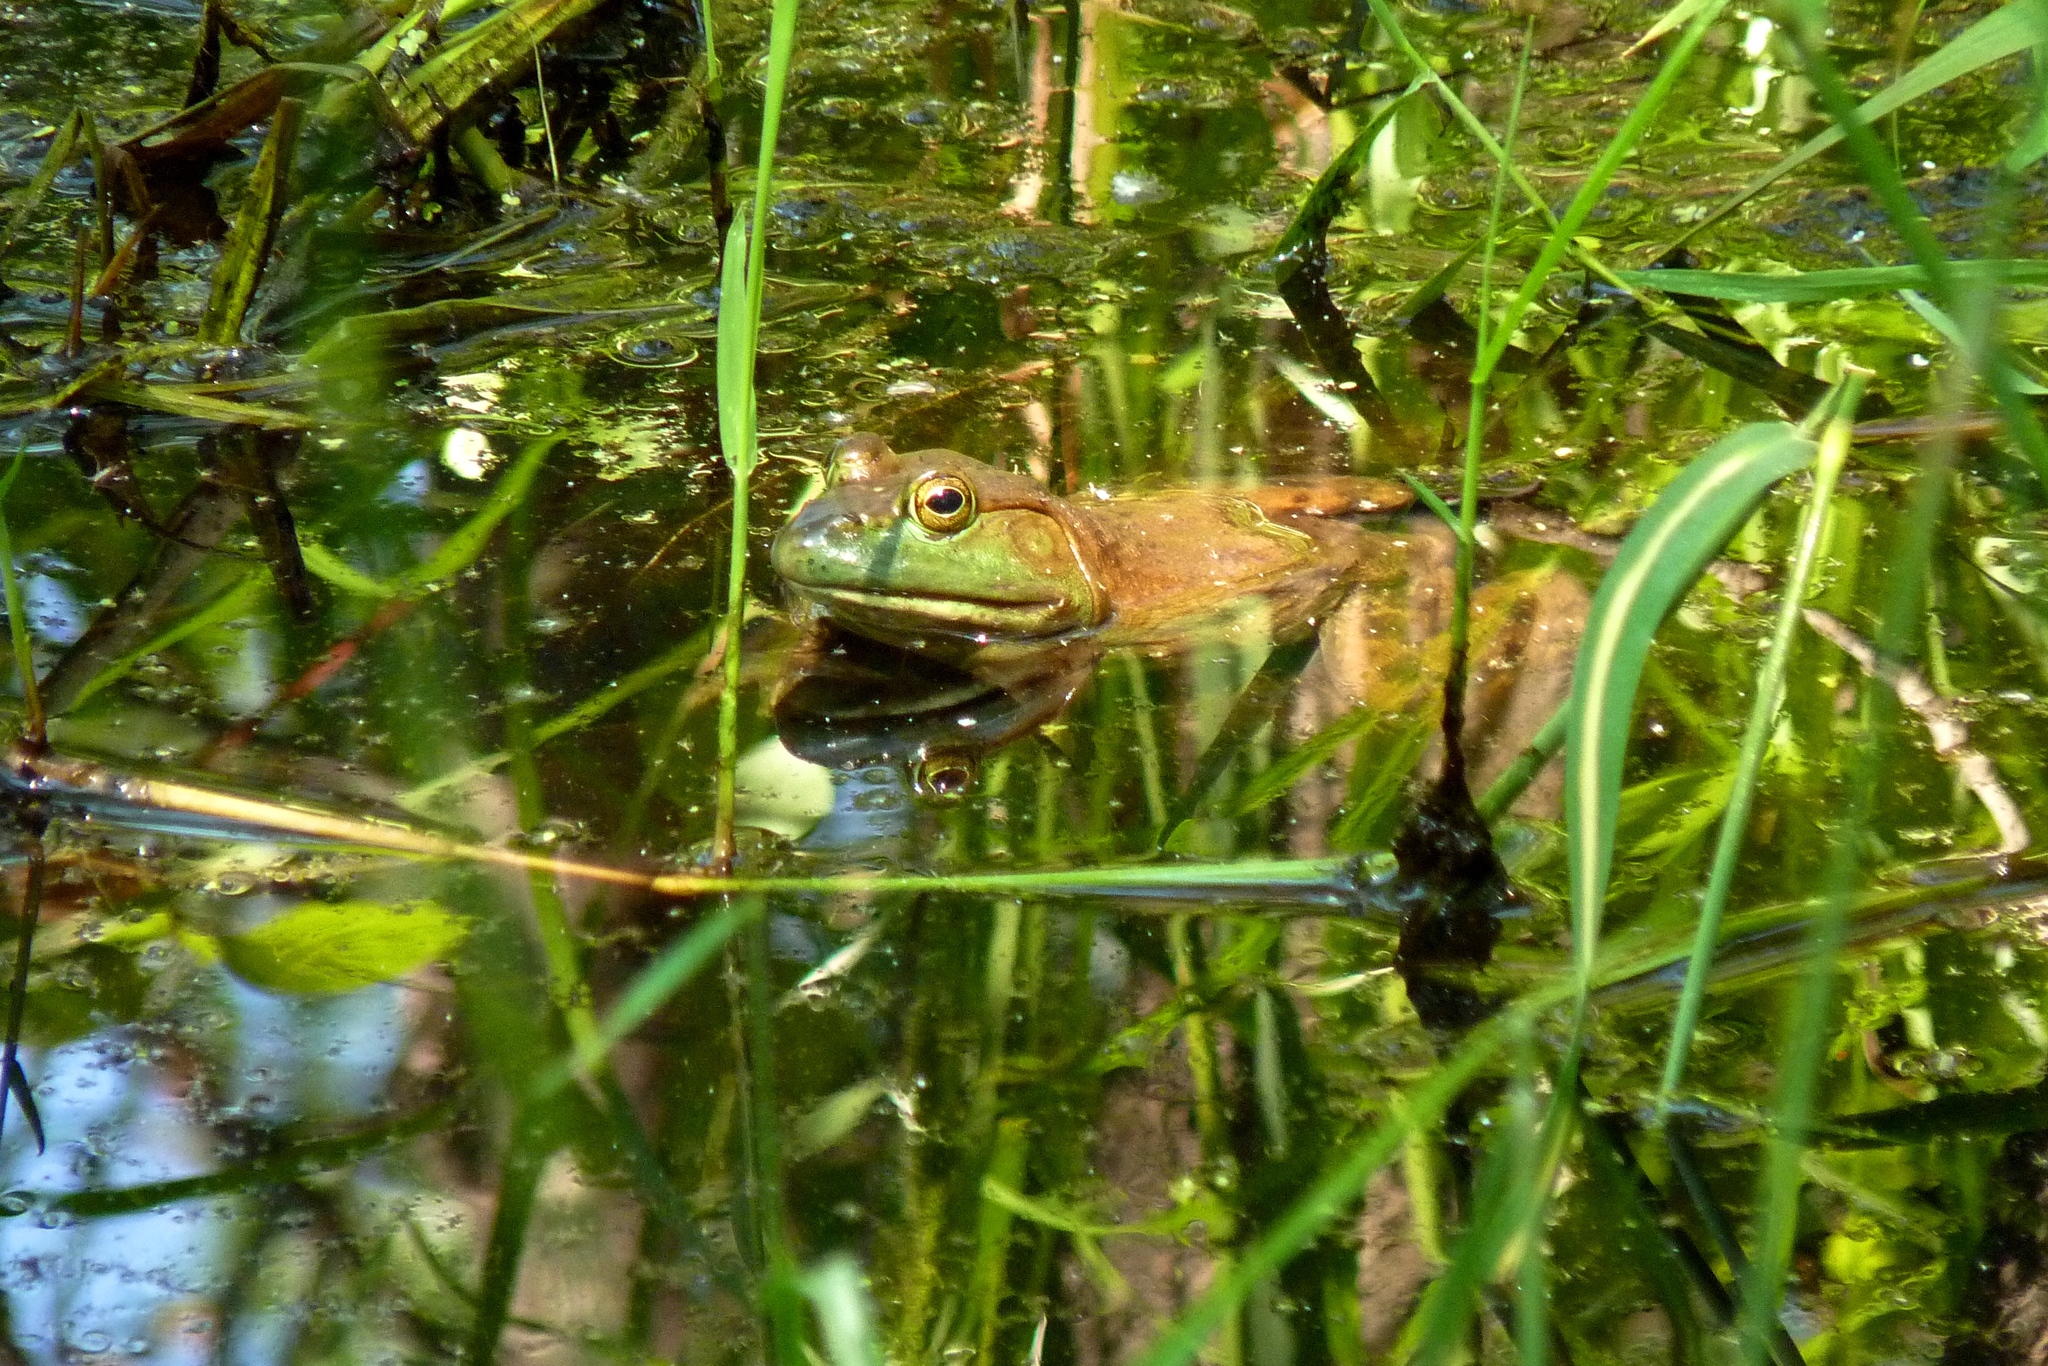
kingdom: Animalia
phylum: Chordata
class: Amphibia
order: Anura
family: Ranidae
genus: Lithobates
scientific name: Lithobates catesbeianus
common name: American bullfrog
